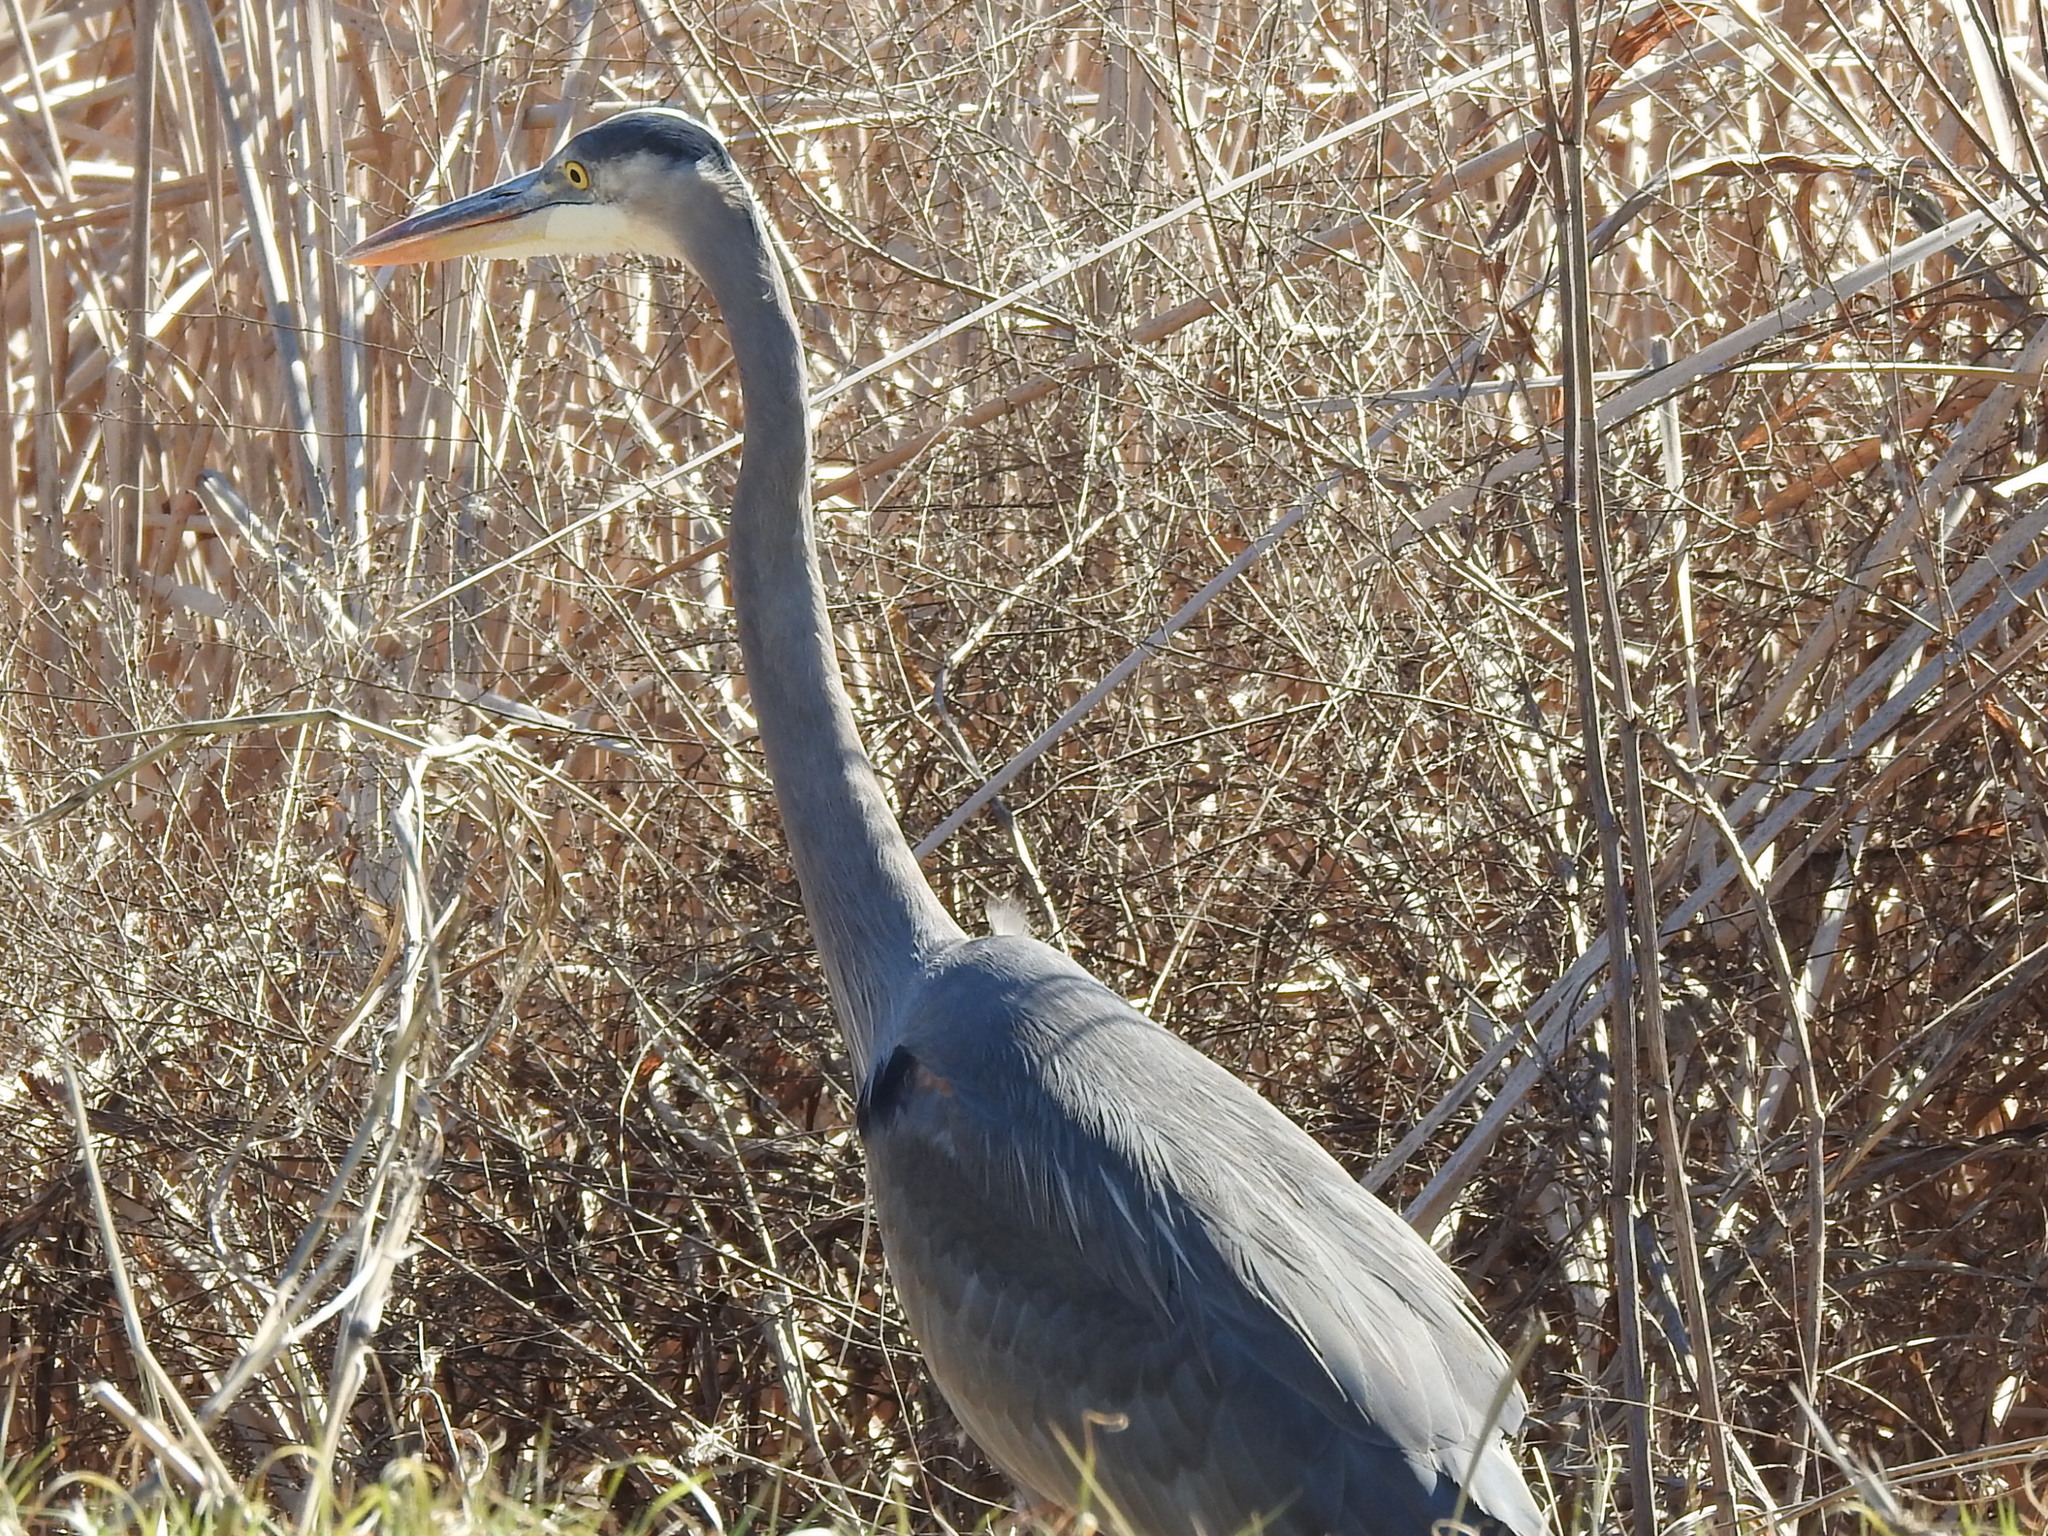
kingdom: Animalia
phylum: Chordata
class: Aves
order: Pelecaniformes
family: Ardeidae
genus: Ardea
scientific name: Ardea herodias
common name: Great blue heron
